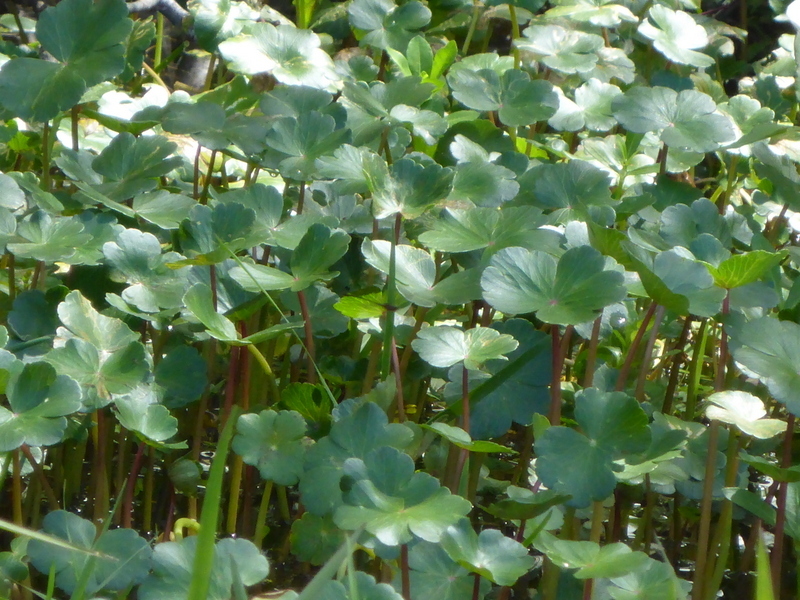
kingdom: Plantae
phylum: Tracheophyta
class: Magnoliopsida
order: Apiales
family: Araliaceae
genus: Hydrocotyle
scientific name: Hydrocotyle ranunculoides
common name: Floating pennywort
